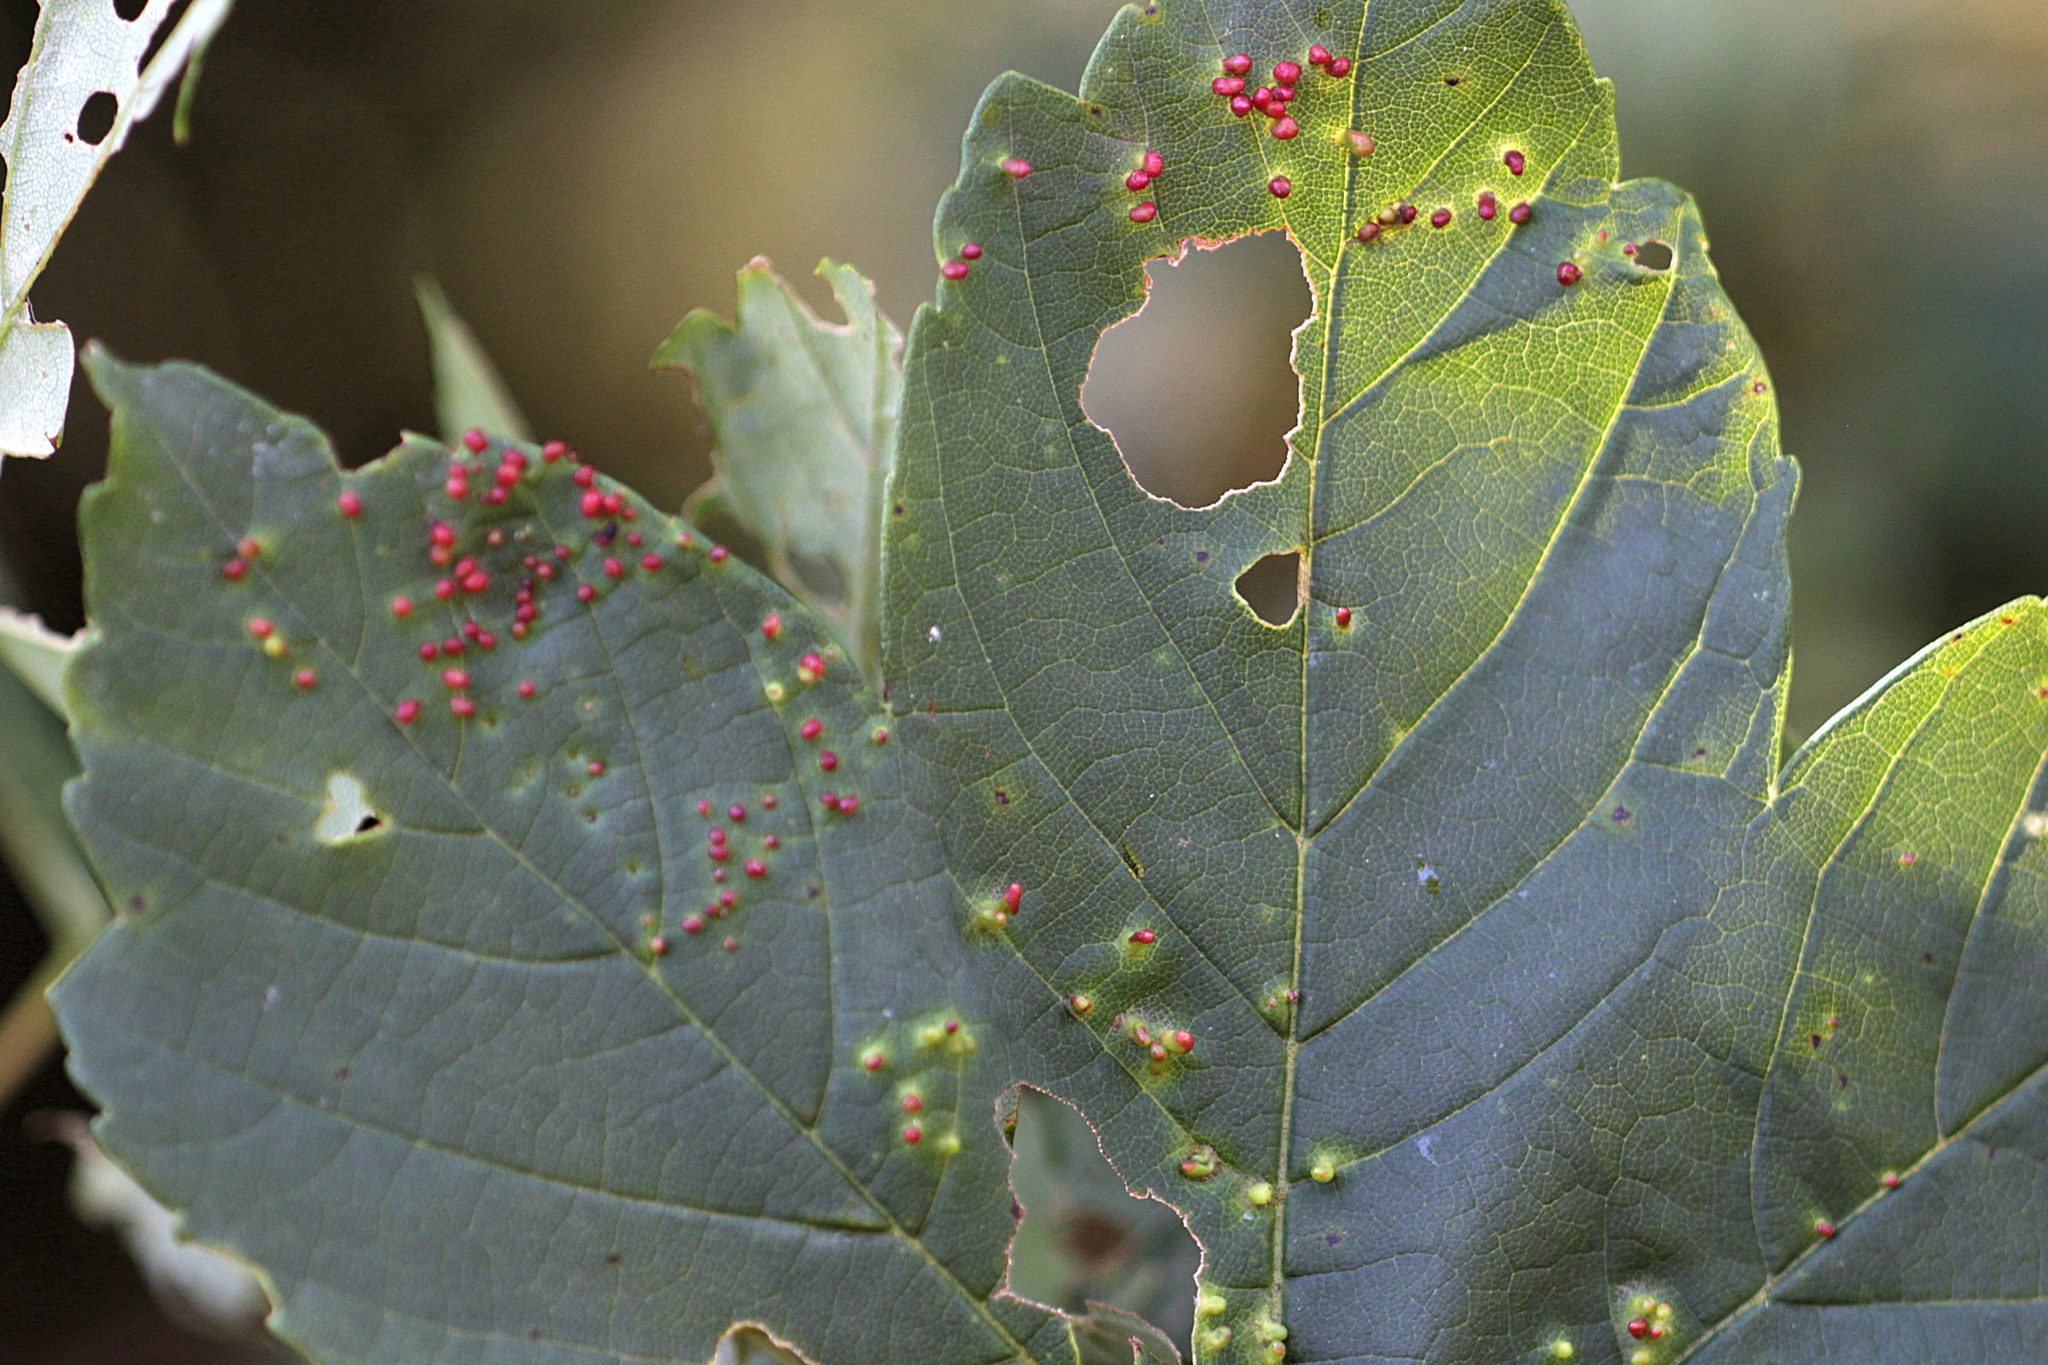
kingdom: Animalia
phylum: Arthropoda
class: Arachnida
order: Trombidiformes
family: Eriophyidae
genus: Aceria
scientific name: Aceria cephaloneus
